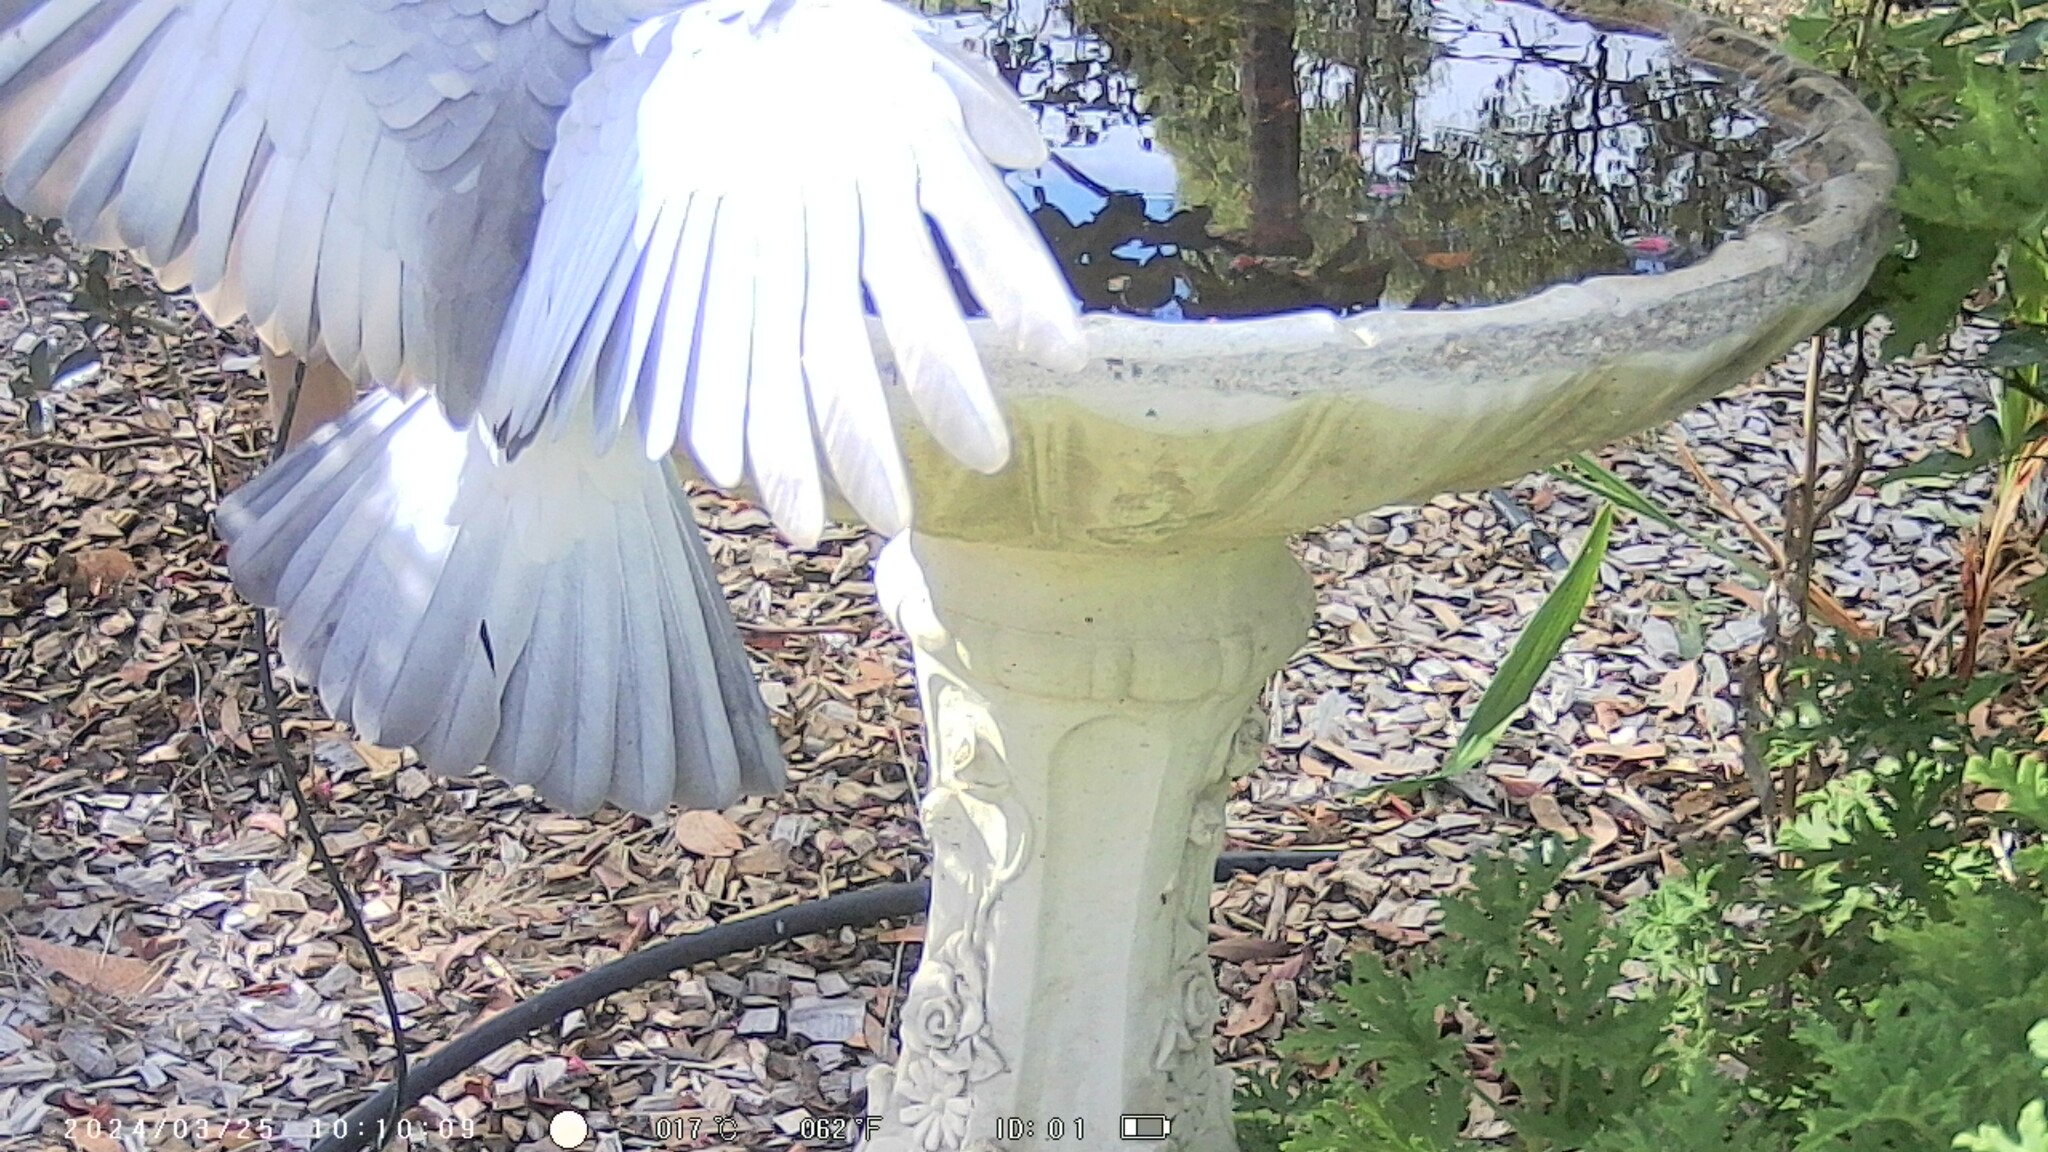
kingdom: Animalia
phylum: Chordata
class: Aves
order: Psittaciformes
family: Psittacidae
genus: Eolophus
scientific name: Eolophus roseicapilla
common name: Galah
